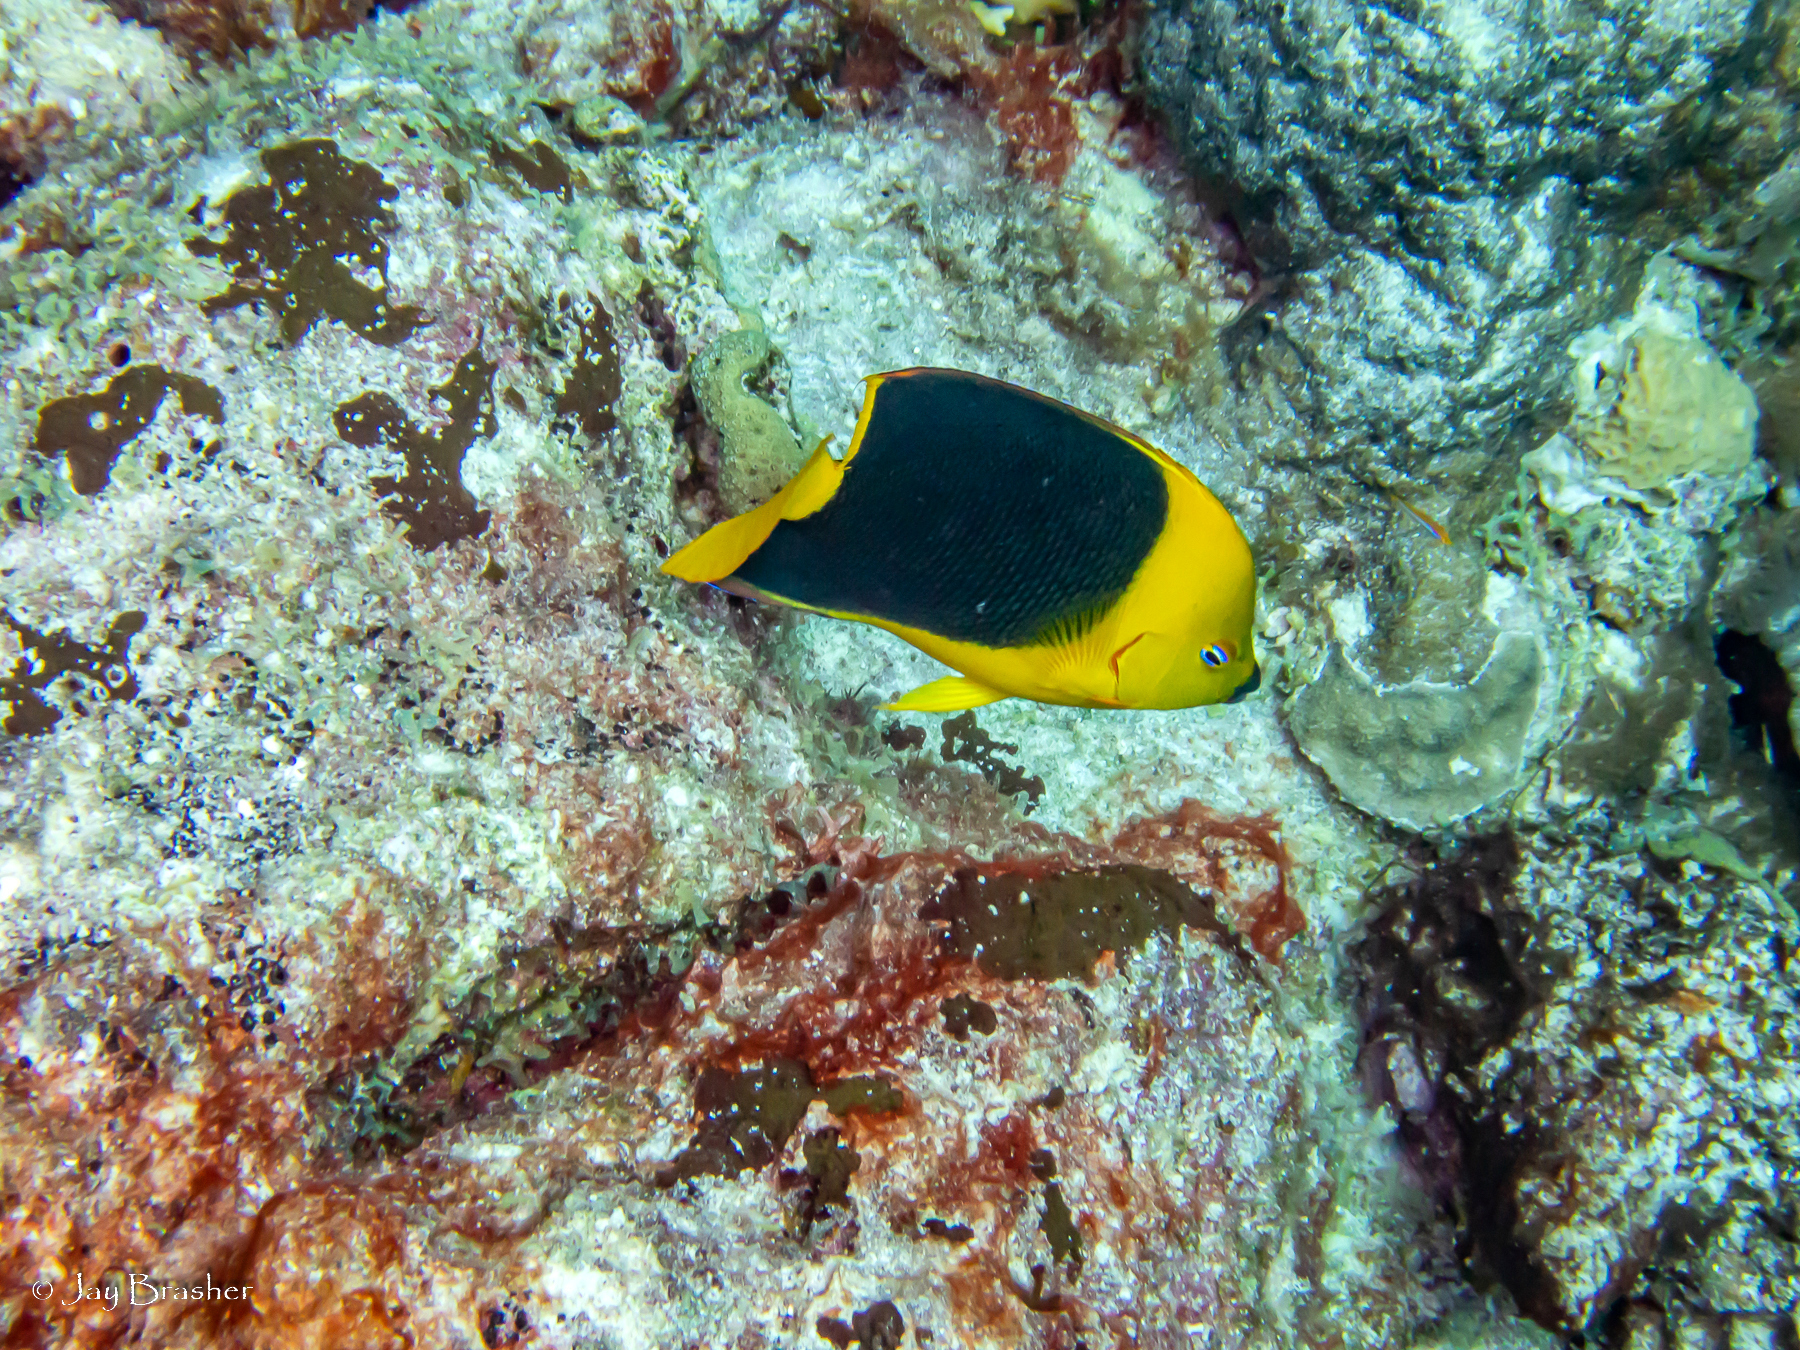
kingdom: Animalia
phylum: Chordata
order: Perciformes
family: Pomacanthidae
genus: Holacanthus
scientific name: Holacanthus tricolor
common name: Rock beauty
